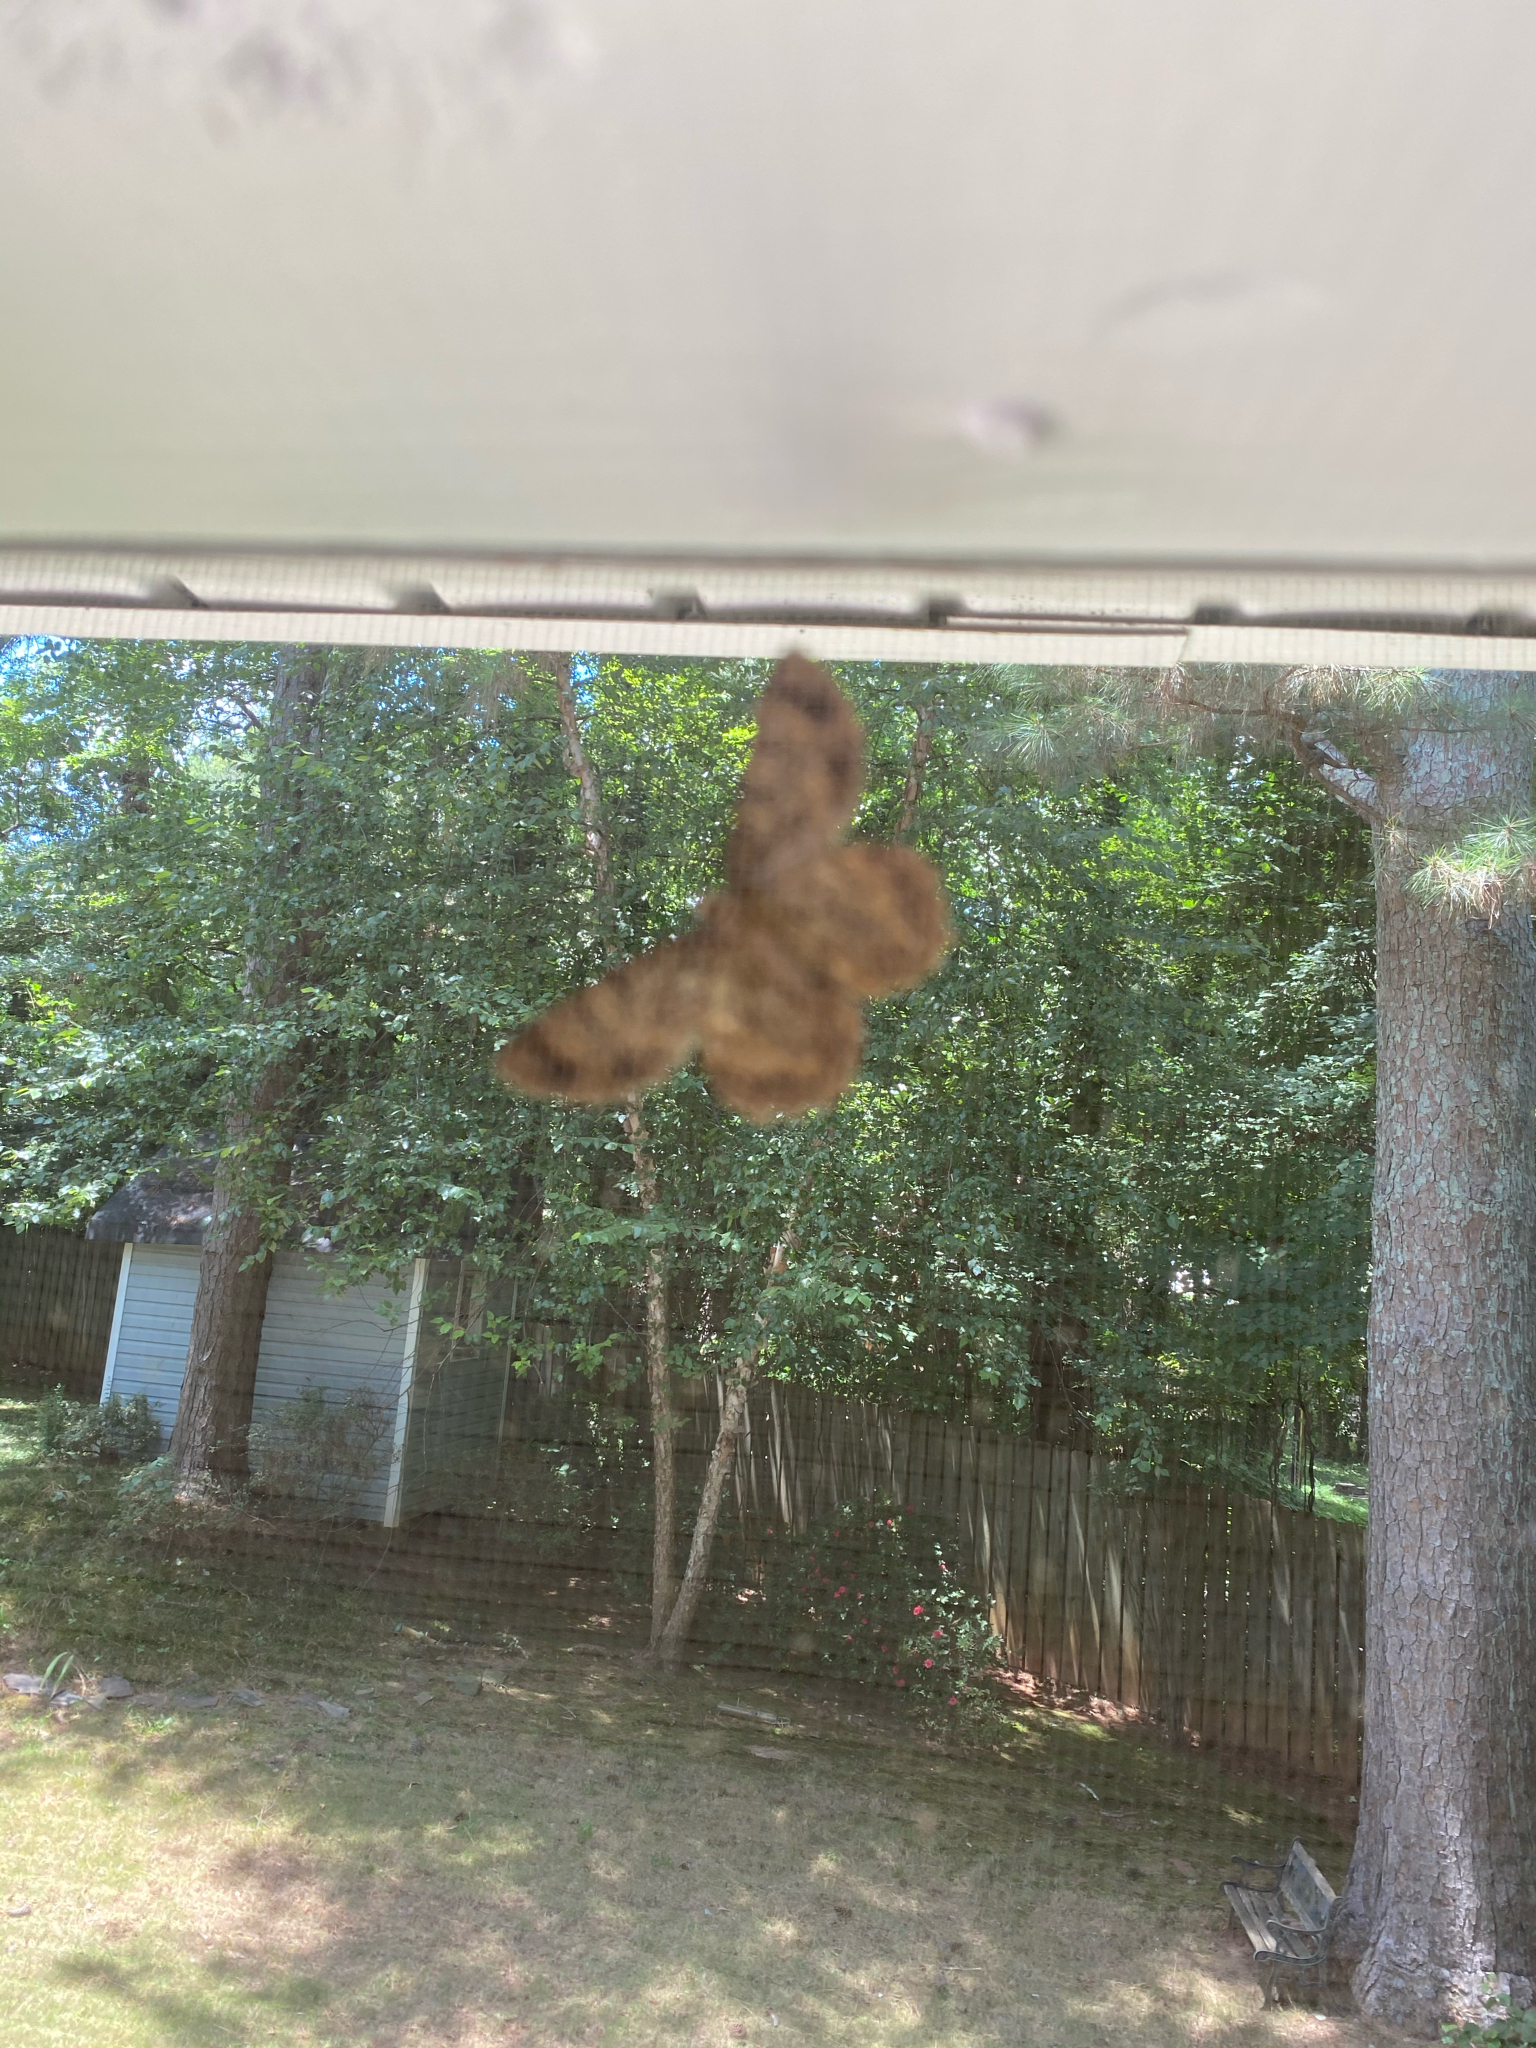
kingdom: Animalia
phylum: Arthropoda
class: Insecta
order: Lepidoptera
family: Geometridae
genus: Epimecis
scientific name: Epimecis hortaria
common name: Tulip-tree beauty
